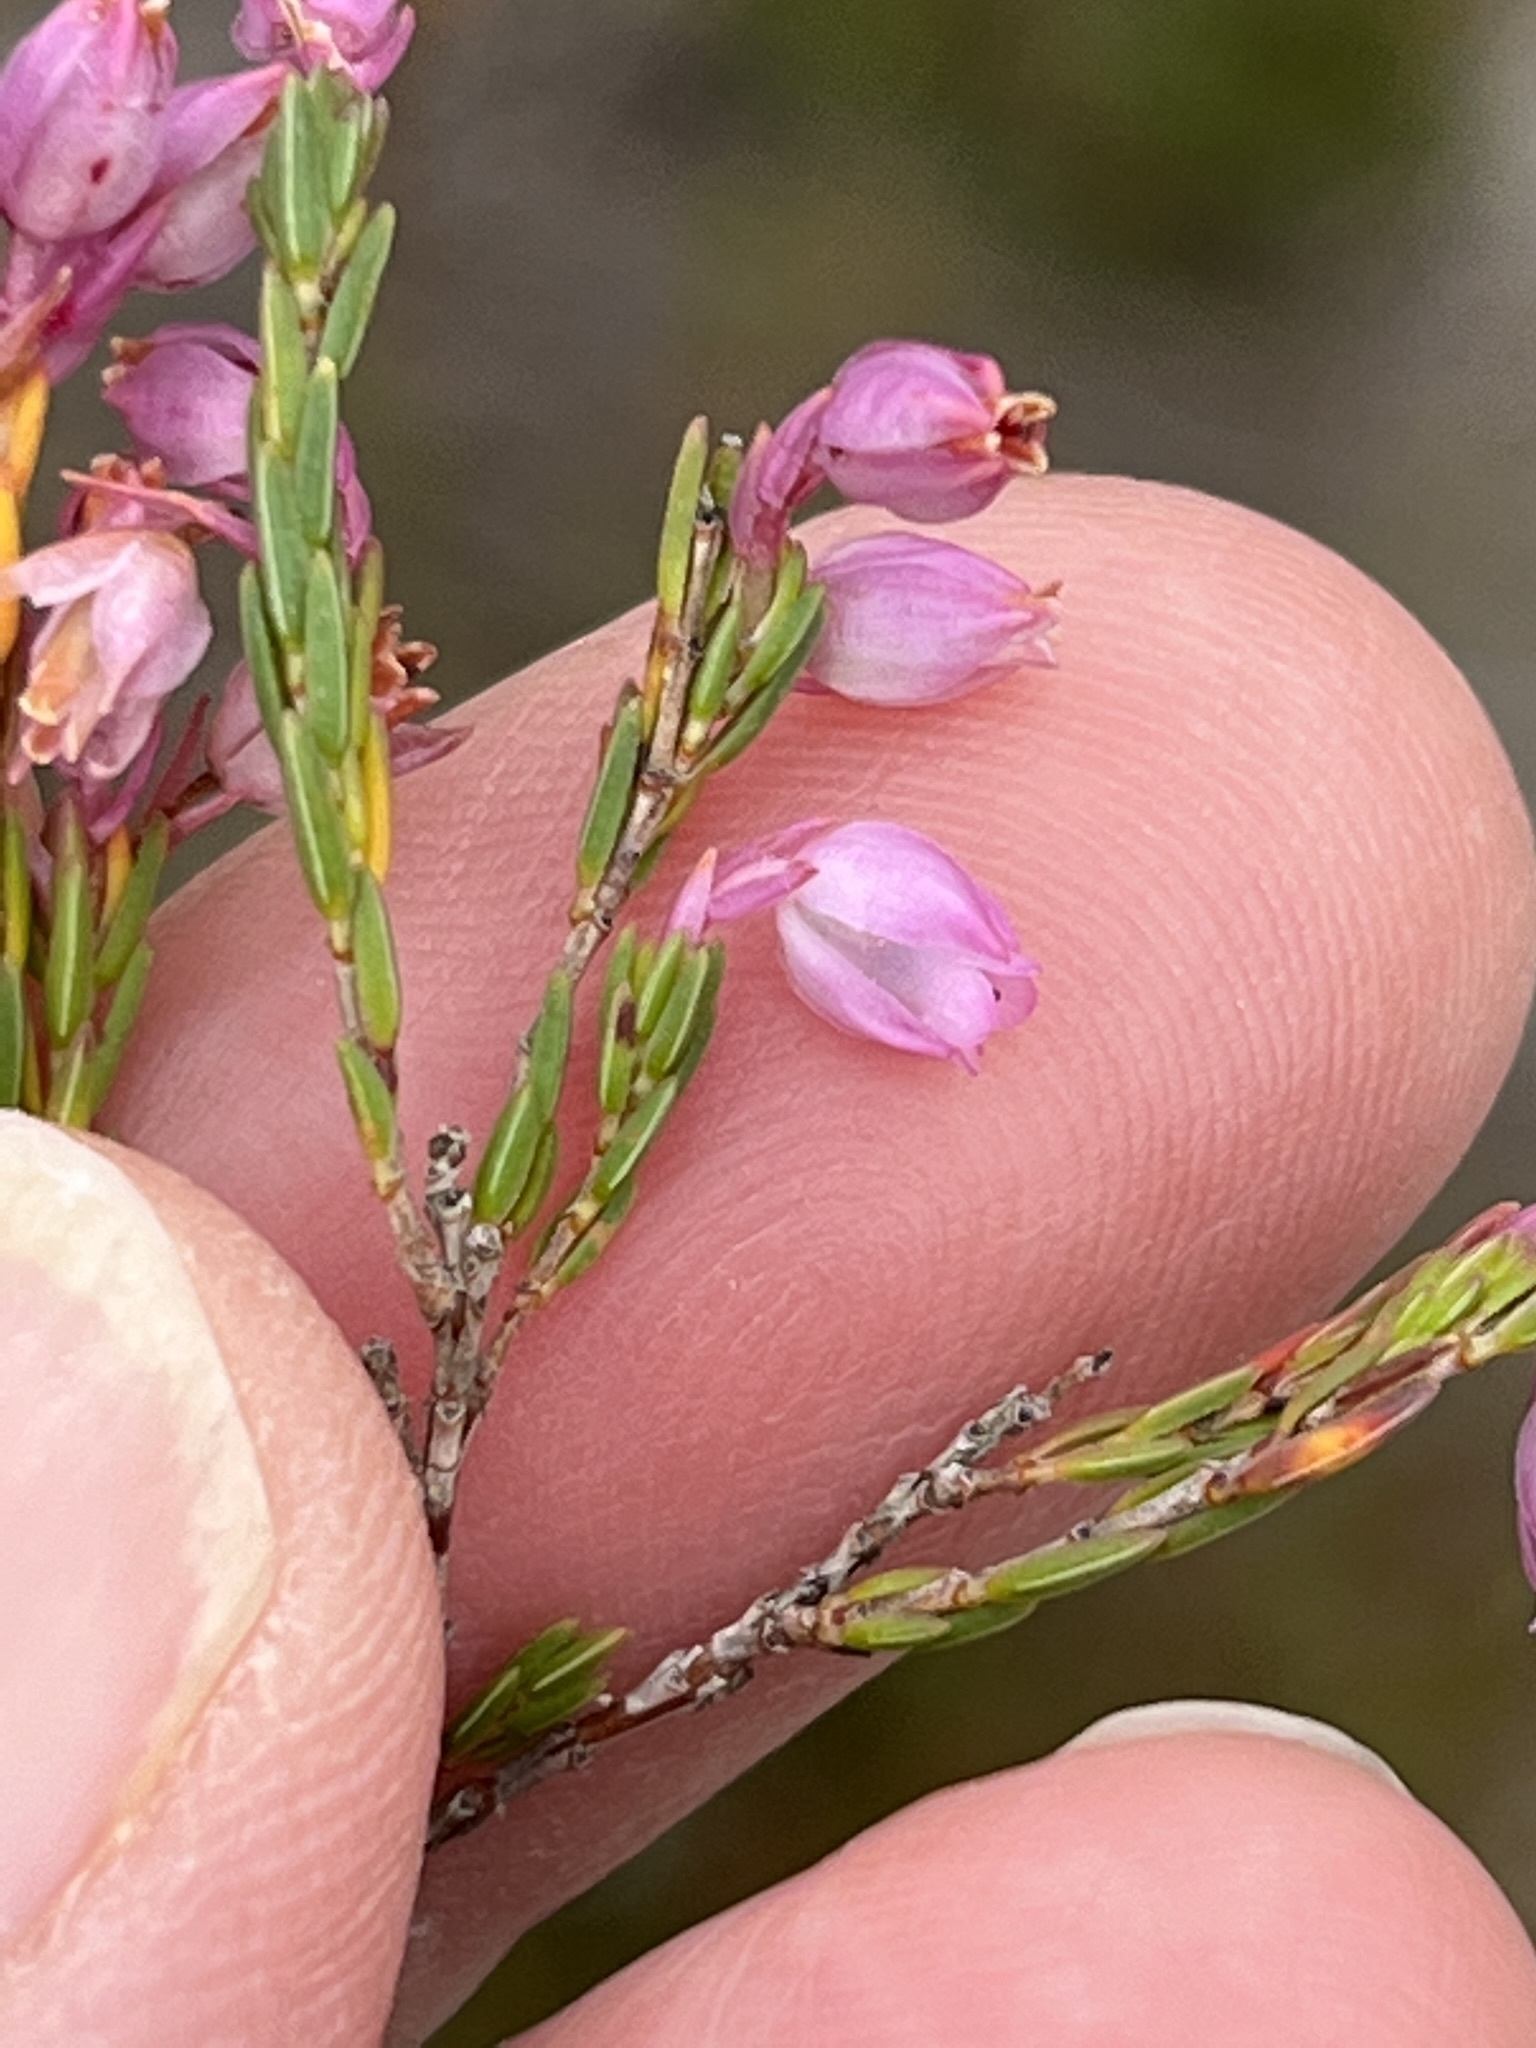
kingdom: Plantae
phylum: Tracheophyta
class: Magnoliopsida
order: Ericales
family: Ericaceae
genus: Erica
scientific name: Erica palliiflora
